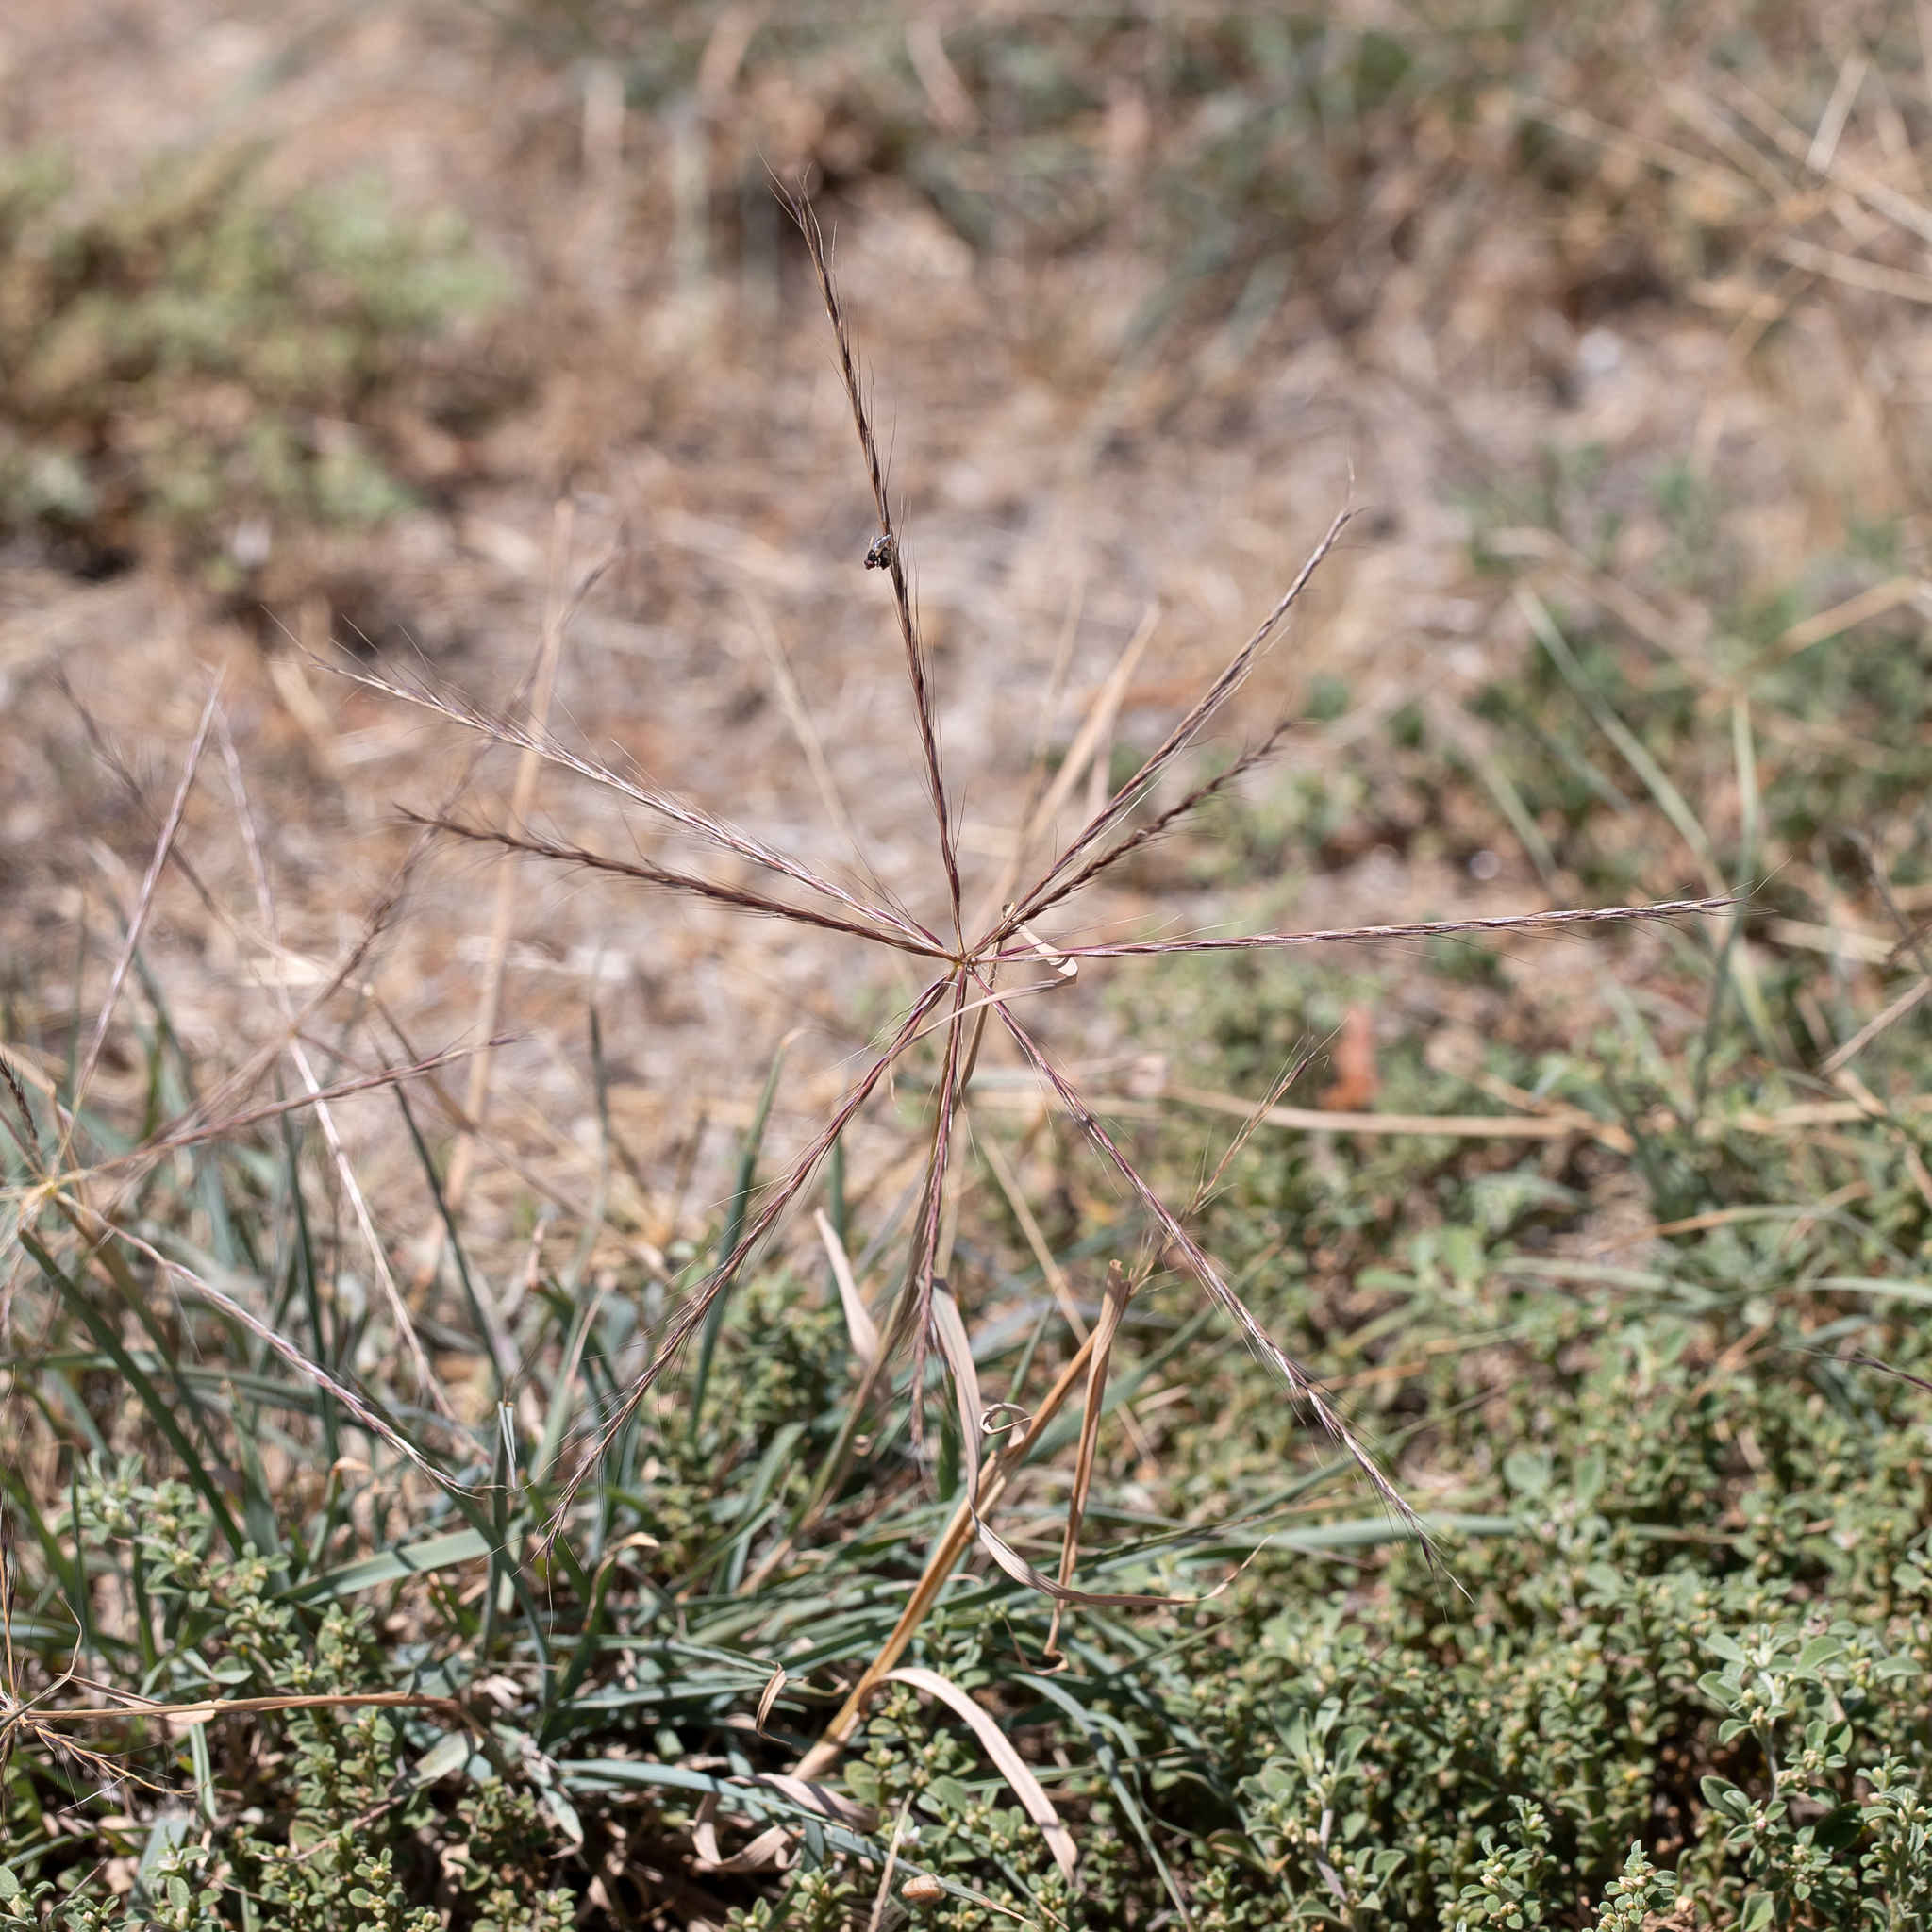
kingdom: Plantae
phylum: Tracheophyta
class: Liliopsida
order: Poales
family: Poaceae
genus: Enteropogon
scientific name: Enteropogon acicularis
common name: Curly windmill grass
